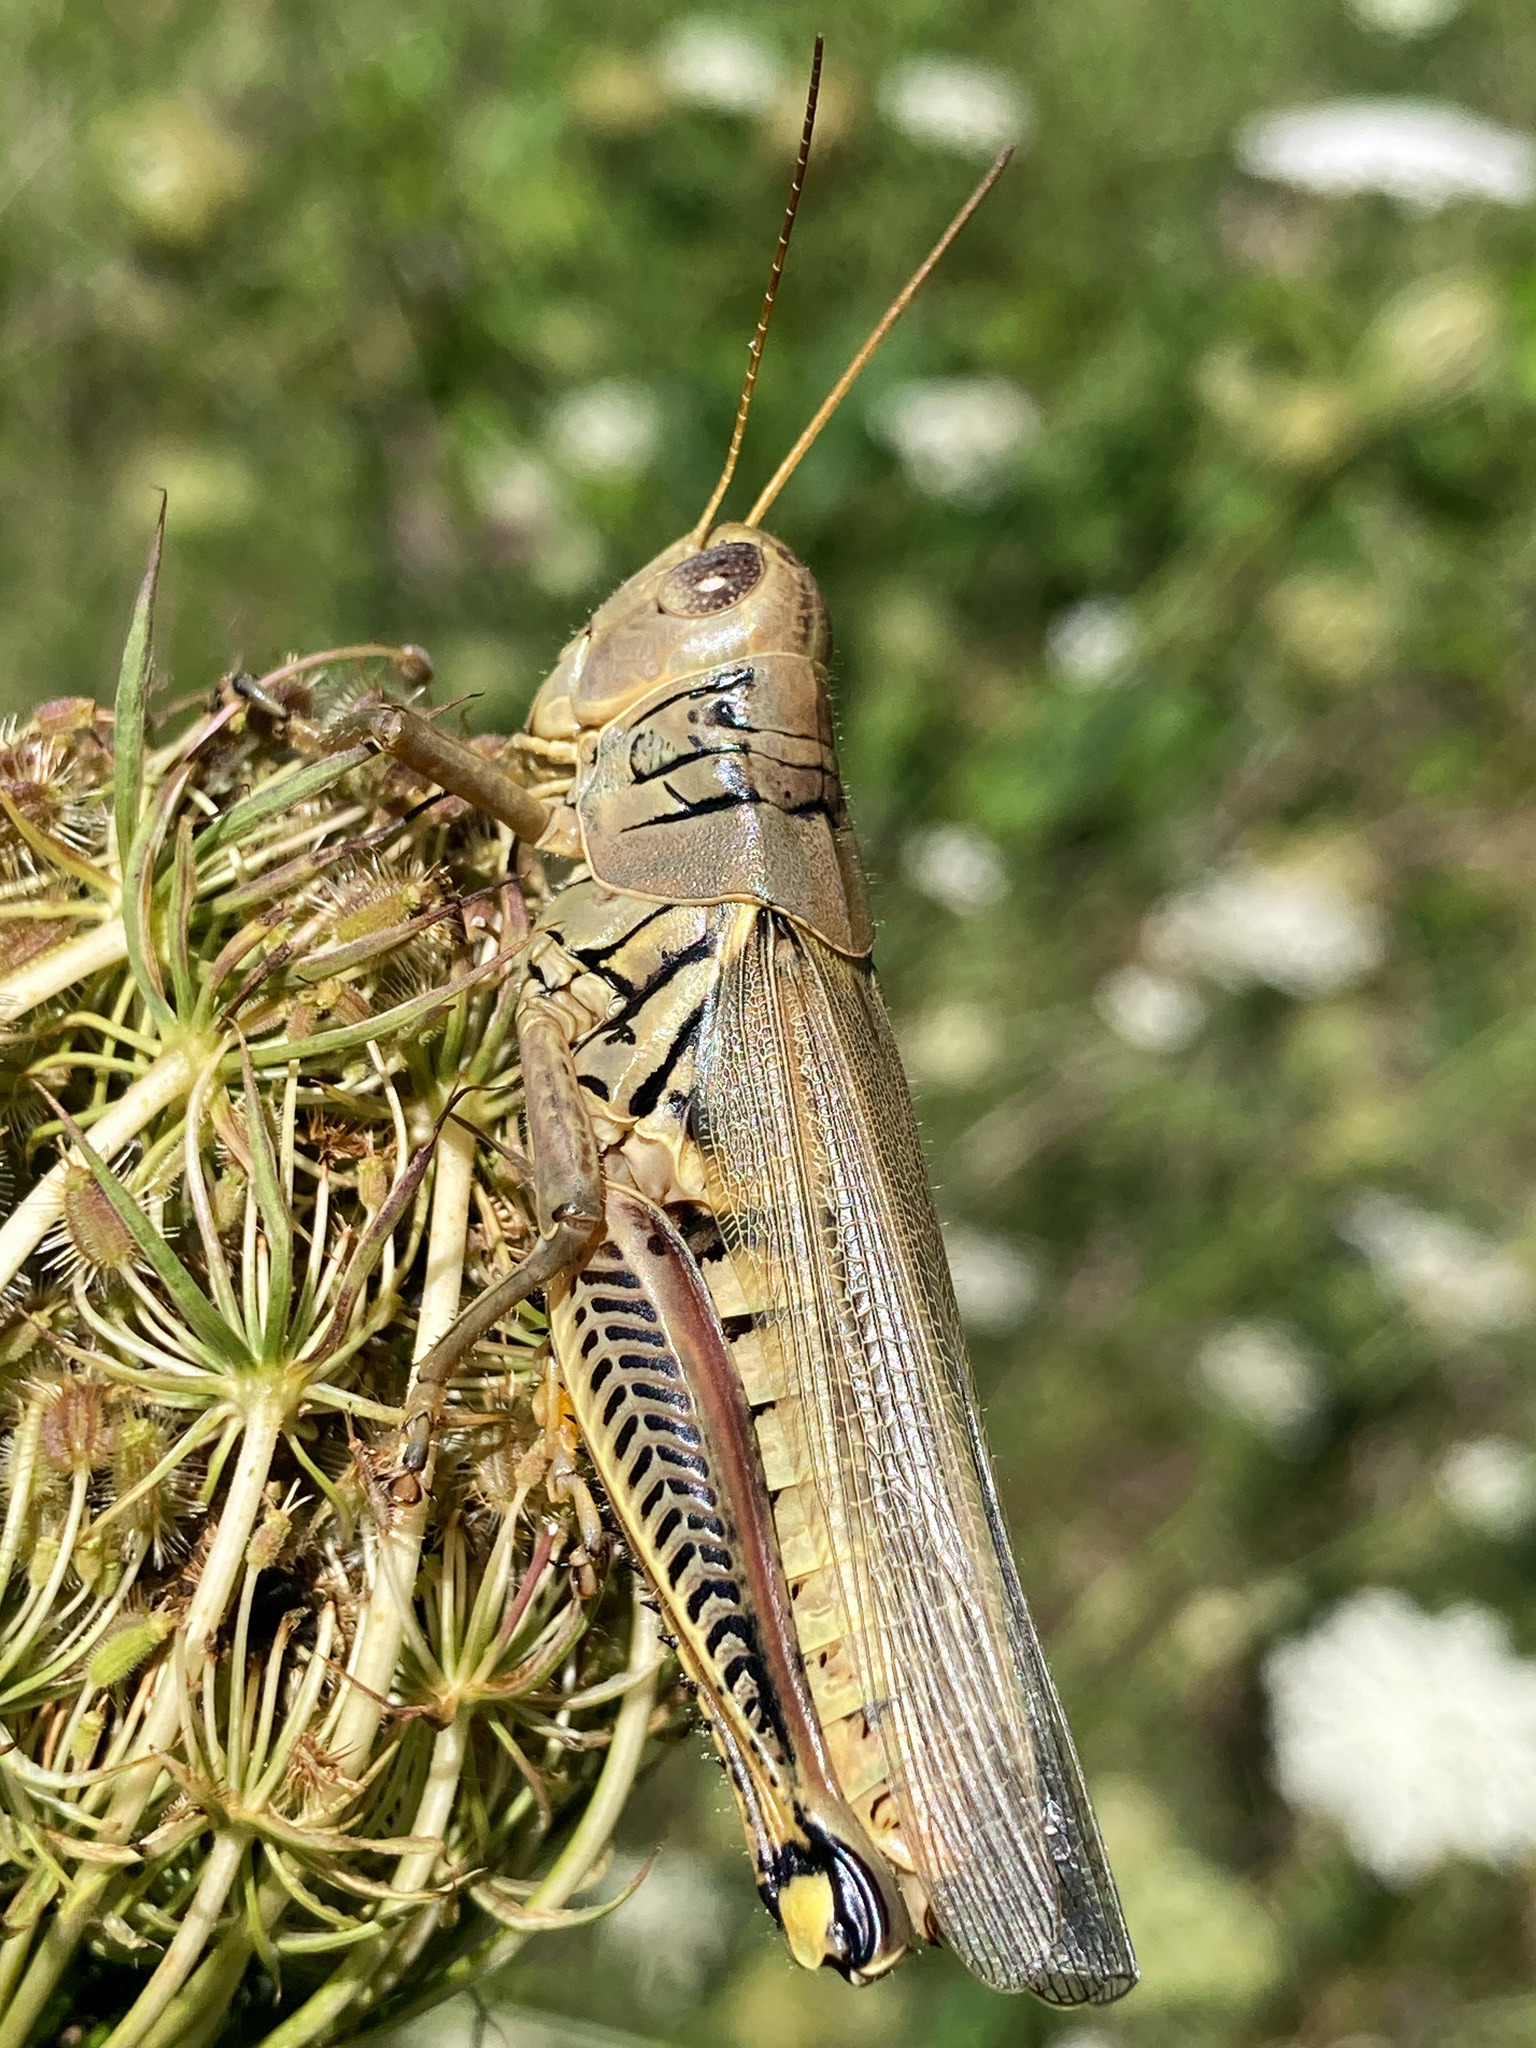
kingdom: Animalia
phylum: Arthropoda
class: Insecta
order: Orthoptera
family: Acrididae
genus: Melanoplus
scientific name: Melanoplus differentialis
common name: Differential grasshopper
